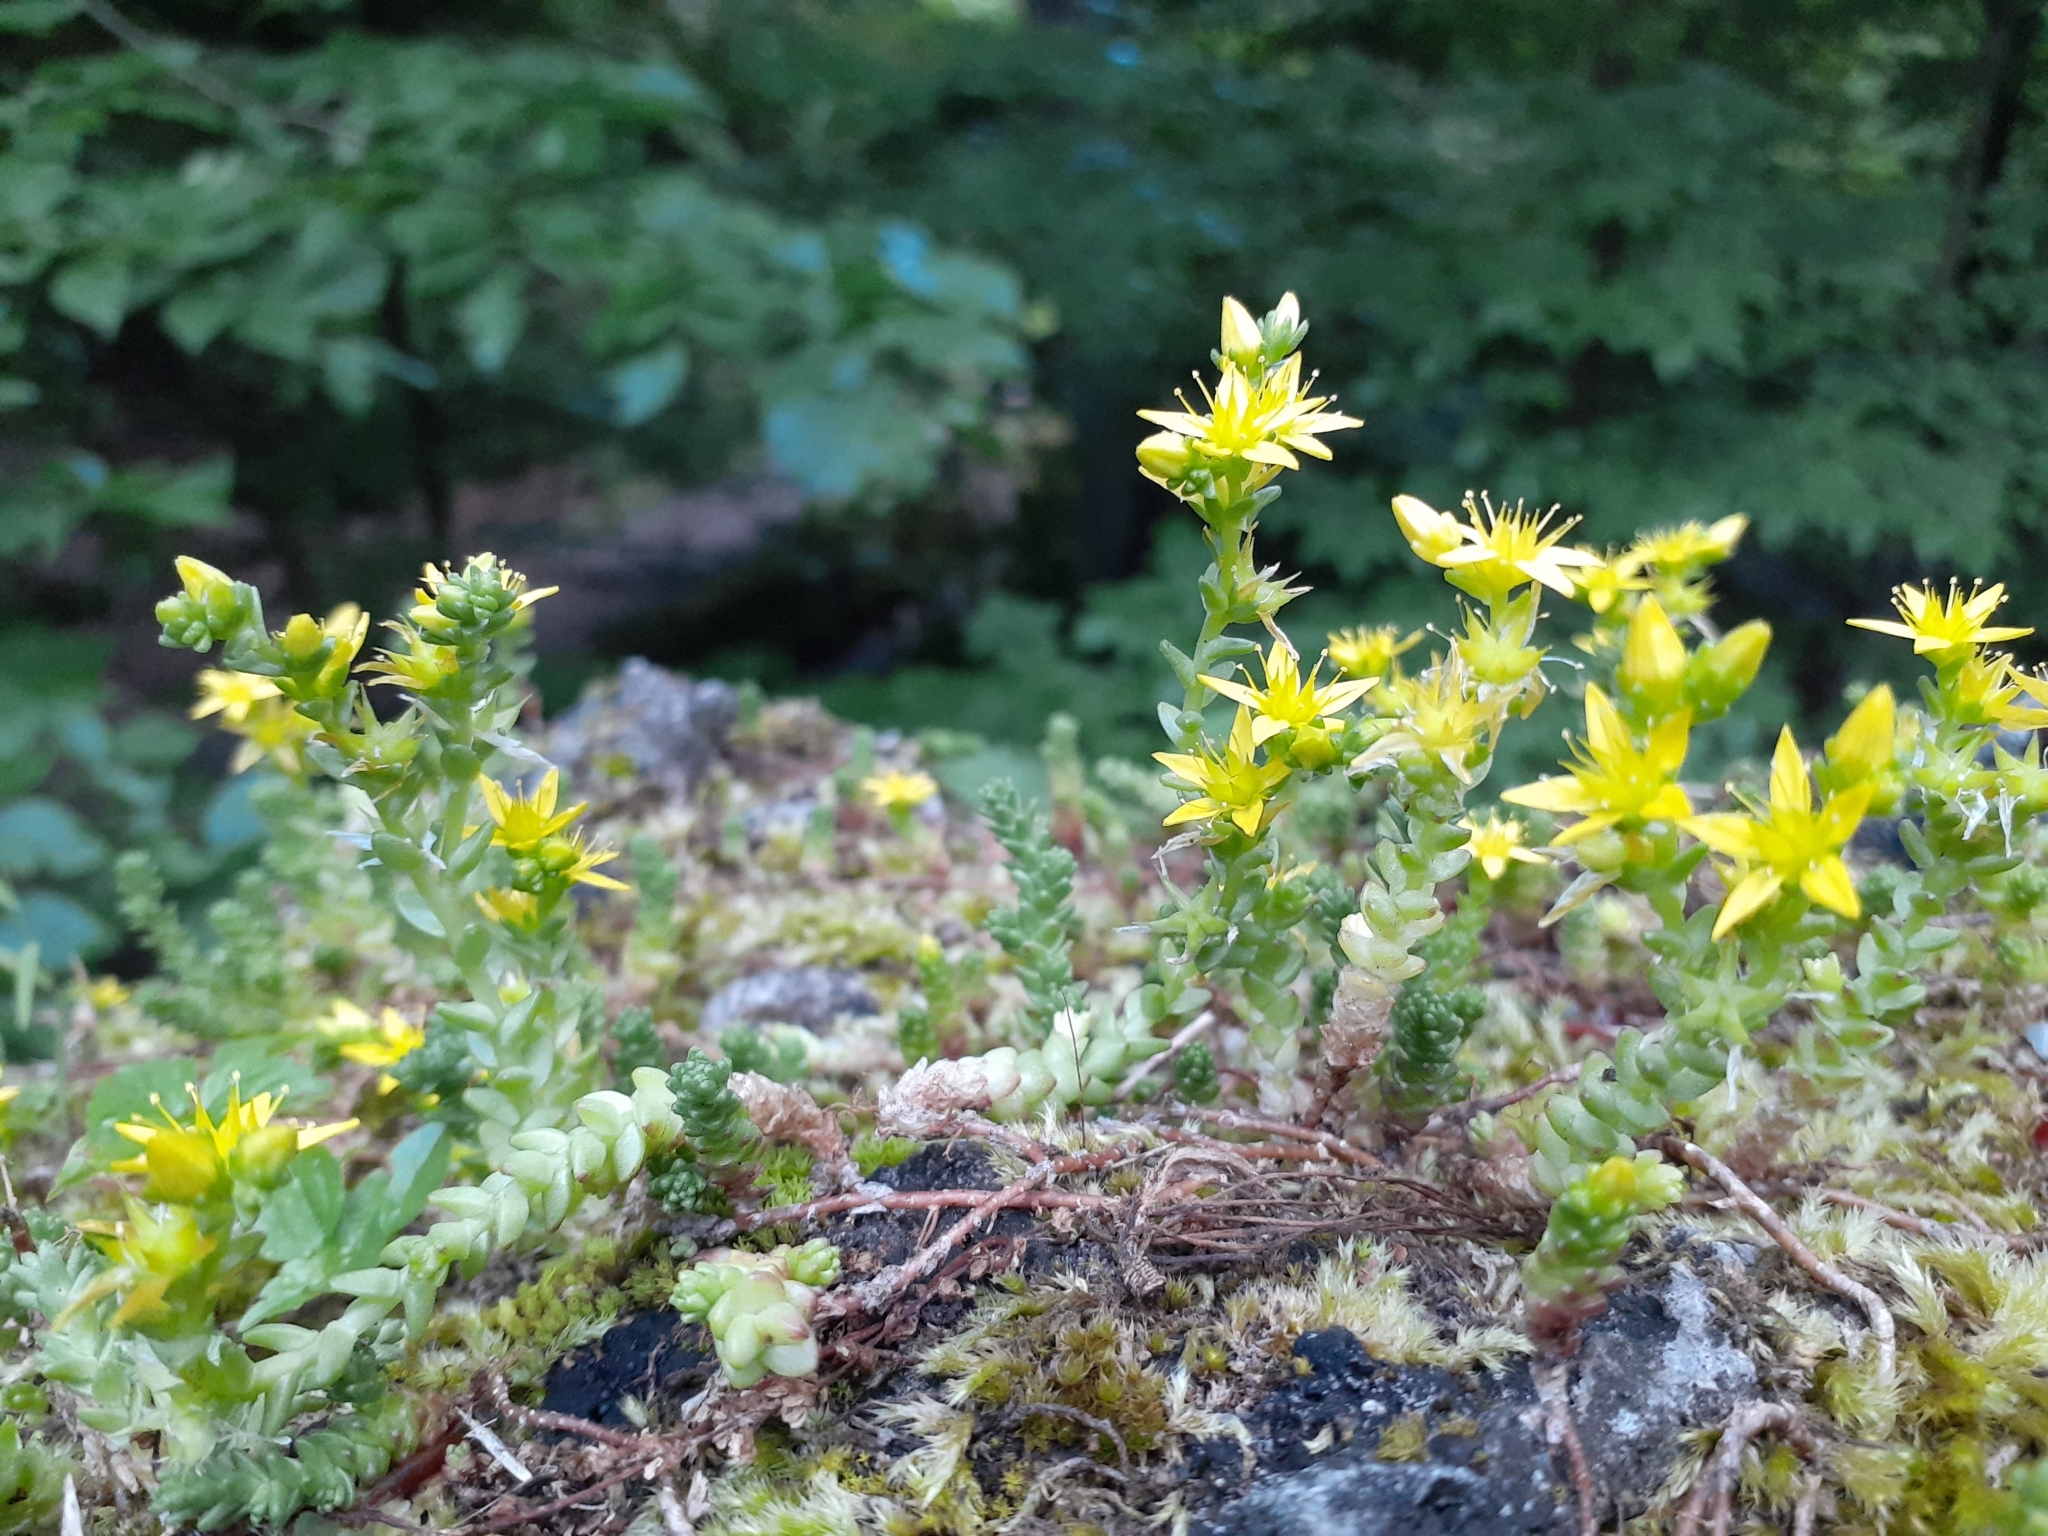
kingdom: Plantae
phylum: Tracheophyta
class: Magnoliopsida
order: Saxifragales
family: Crassulaceae
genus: Sedum
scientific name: Sedum acre
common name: Biting stonecrop
